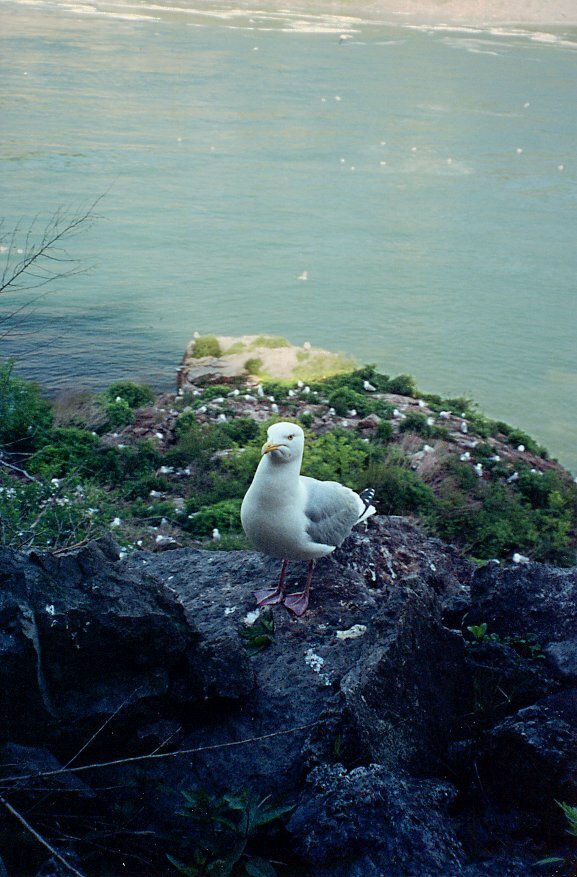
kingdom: Animalia
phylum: Chordata
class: Aves
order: Charadriiformes
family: Laridae
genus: Larus
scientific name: Larus argentatus
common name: Herring gull
